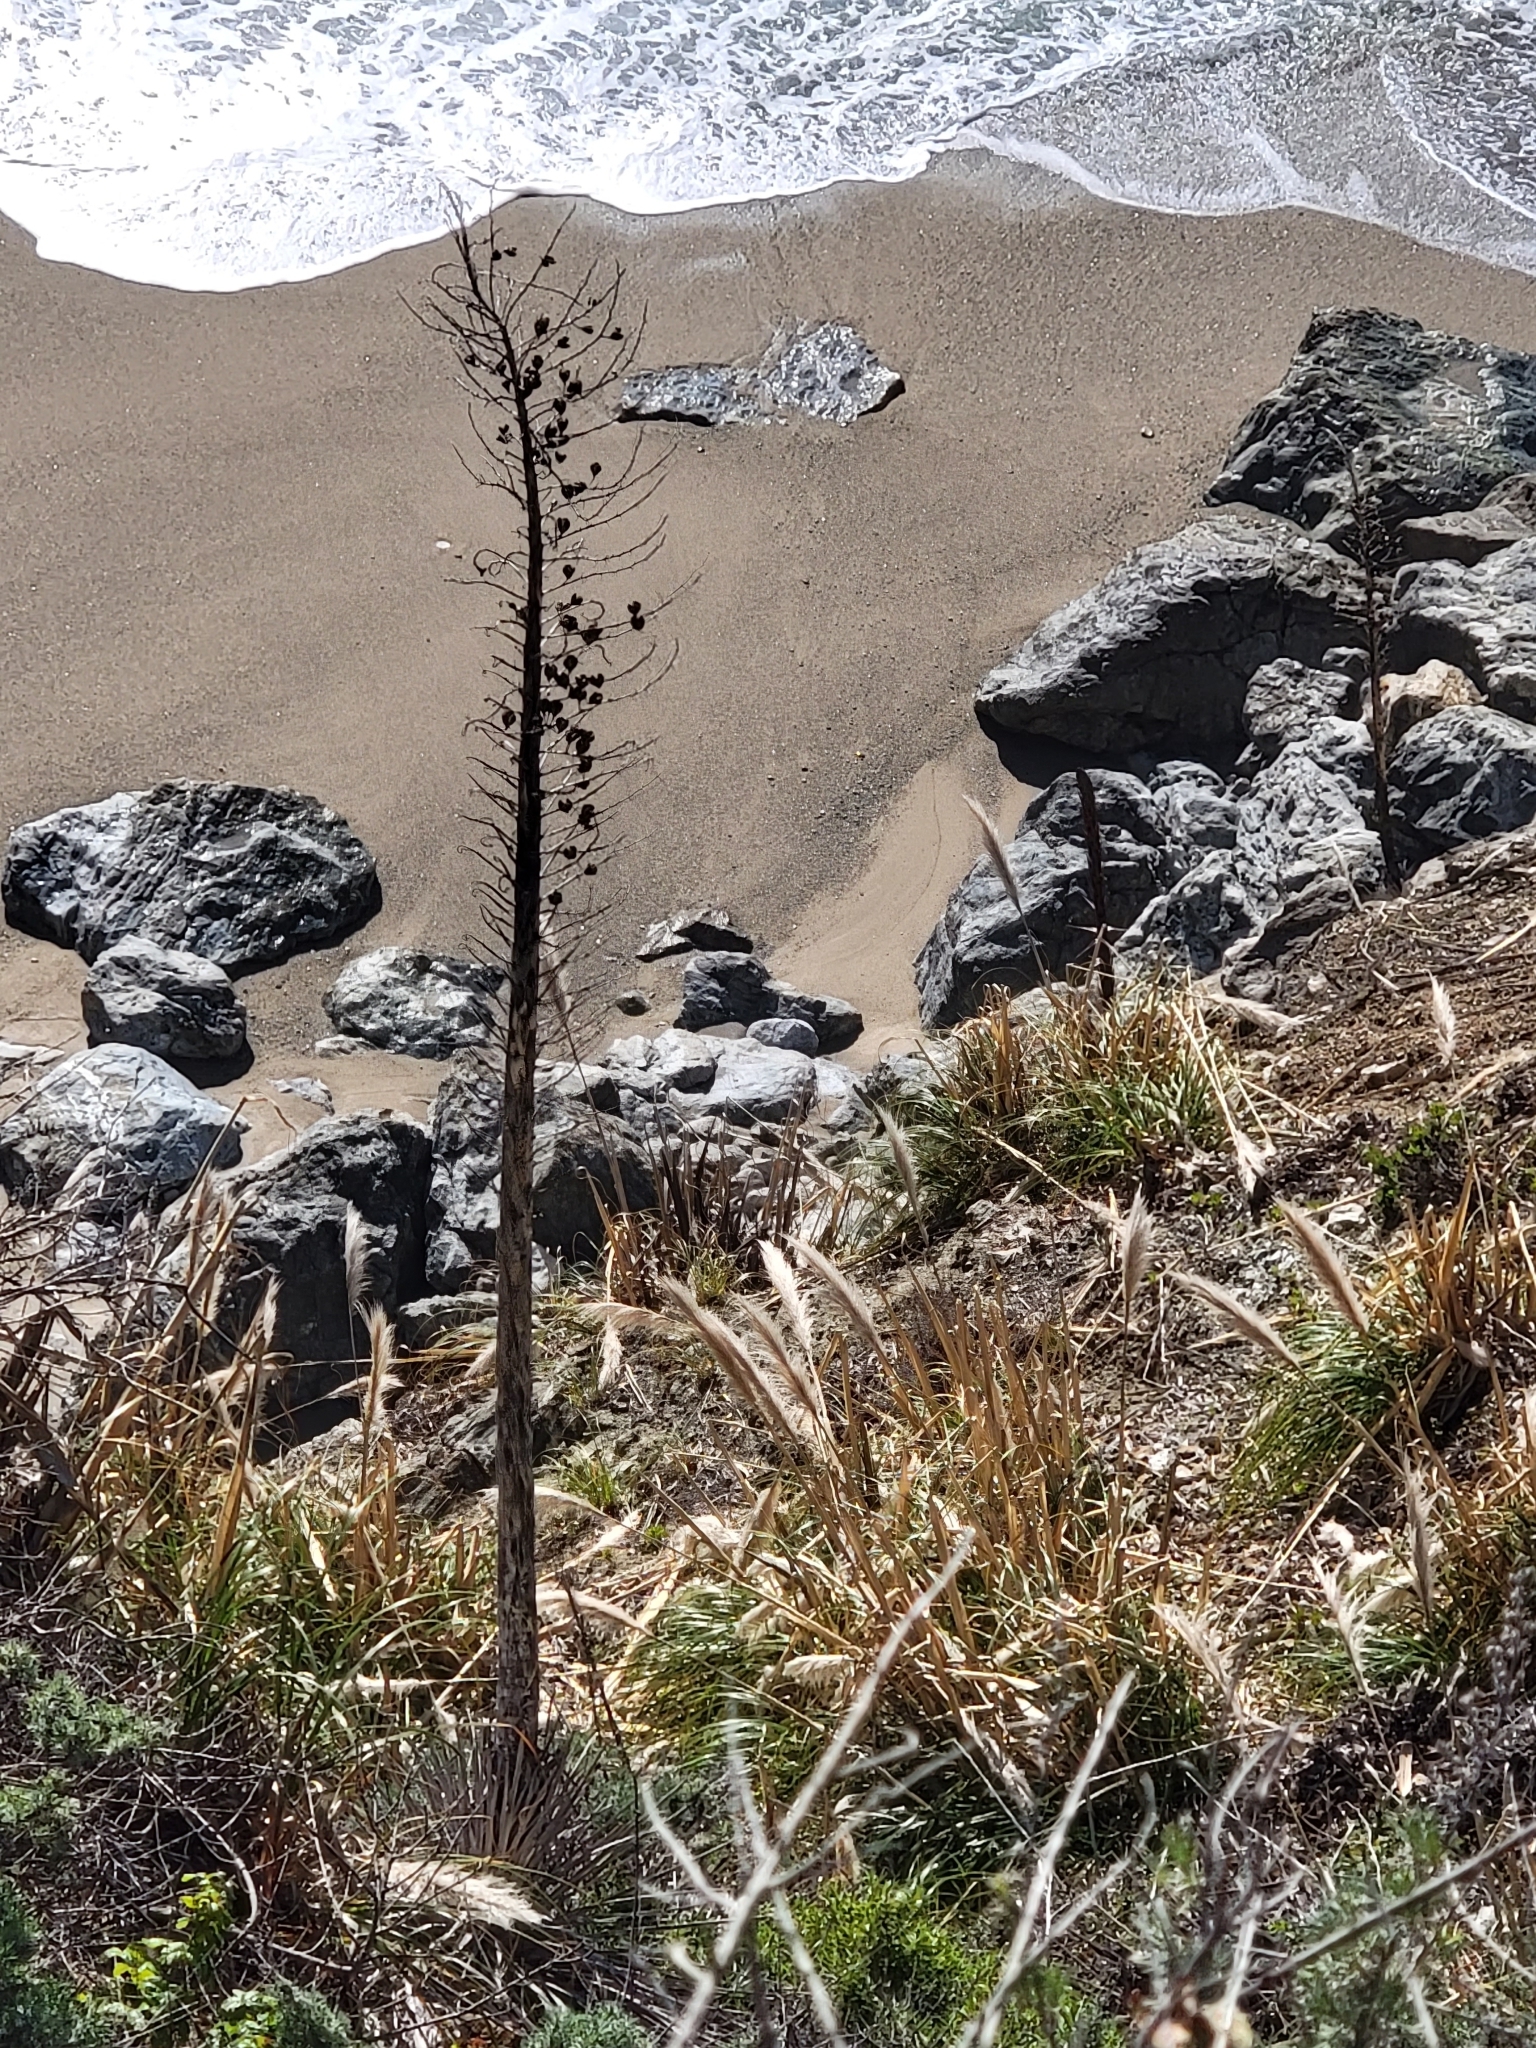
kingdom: Plantae
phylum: Tracheophyta
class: Liliopsida
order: Asparagales
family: Asparagaceae
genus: Hesperoyucca
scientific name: Hesperoyucca whipplei
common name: Our lord's-candle
